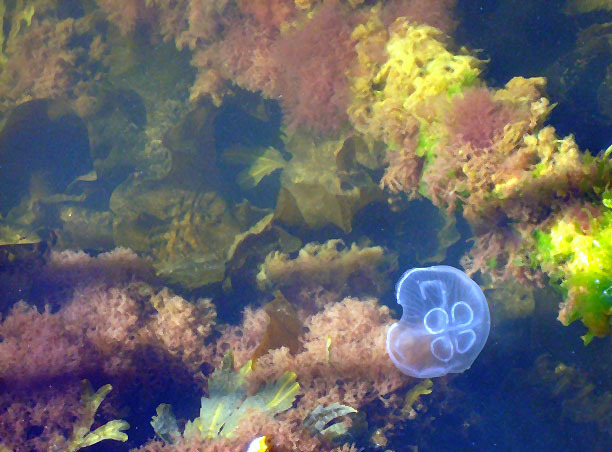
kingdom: Animalia
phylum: Cnidaria
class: Scyphozoa
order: Semaeostomeae
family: Ulmaridae
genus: Aurelia
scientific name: Aurelia aurita
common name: Moon jellyfish
